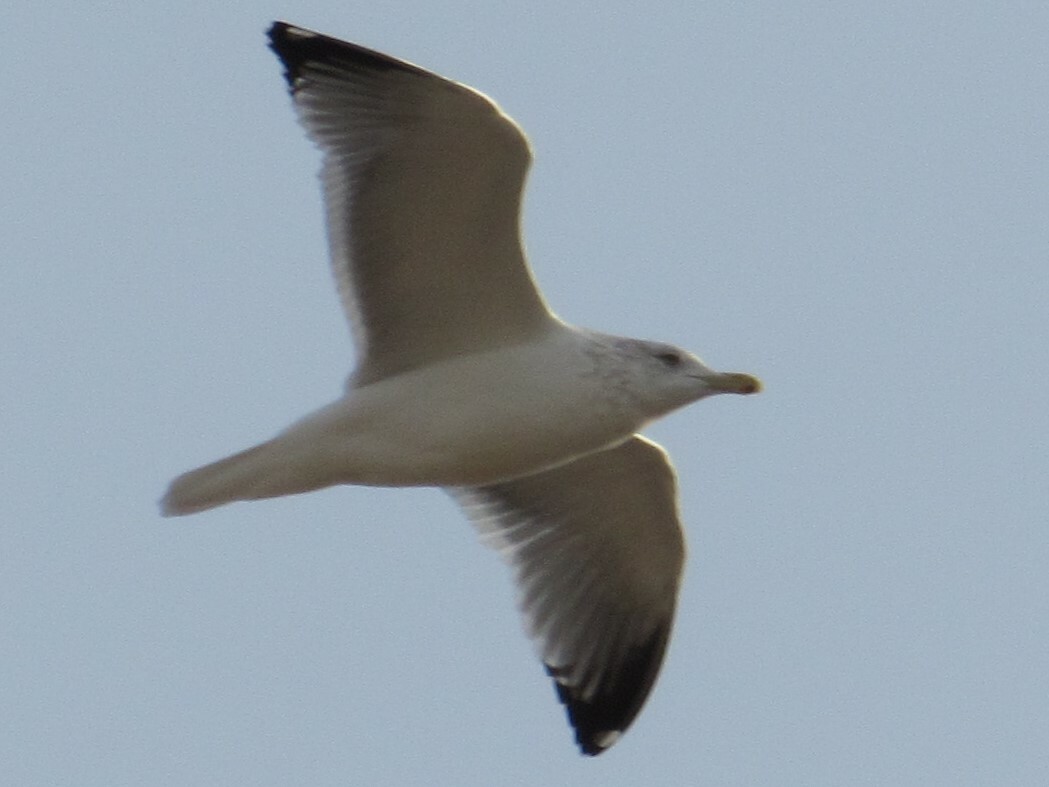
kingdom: Animalia
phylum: Chordata
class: Aves
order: Charadriiformes
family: Laridae
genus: Larus
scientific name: Larus argentatus
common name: Herring gull
